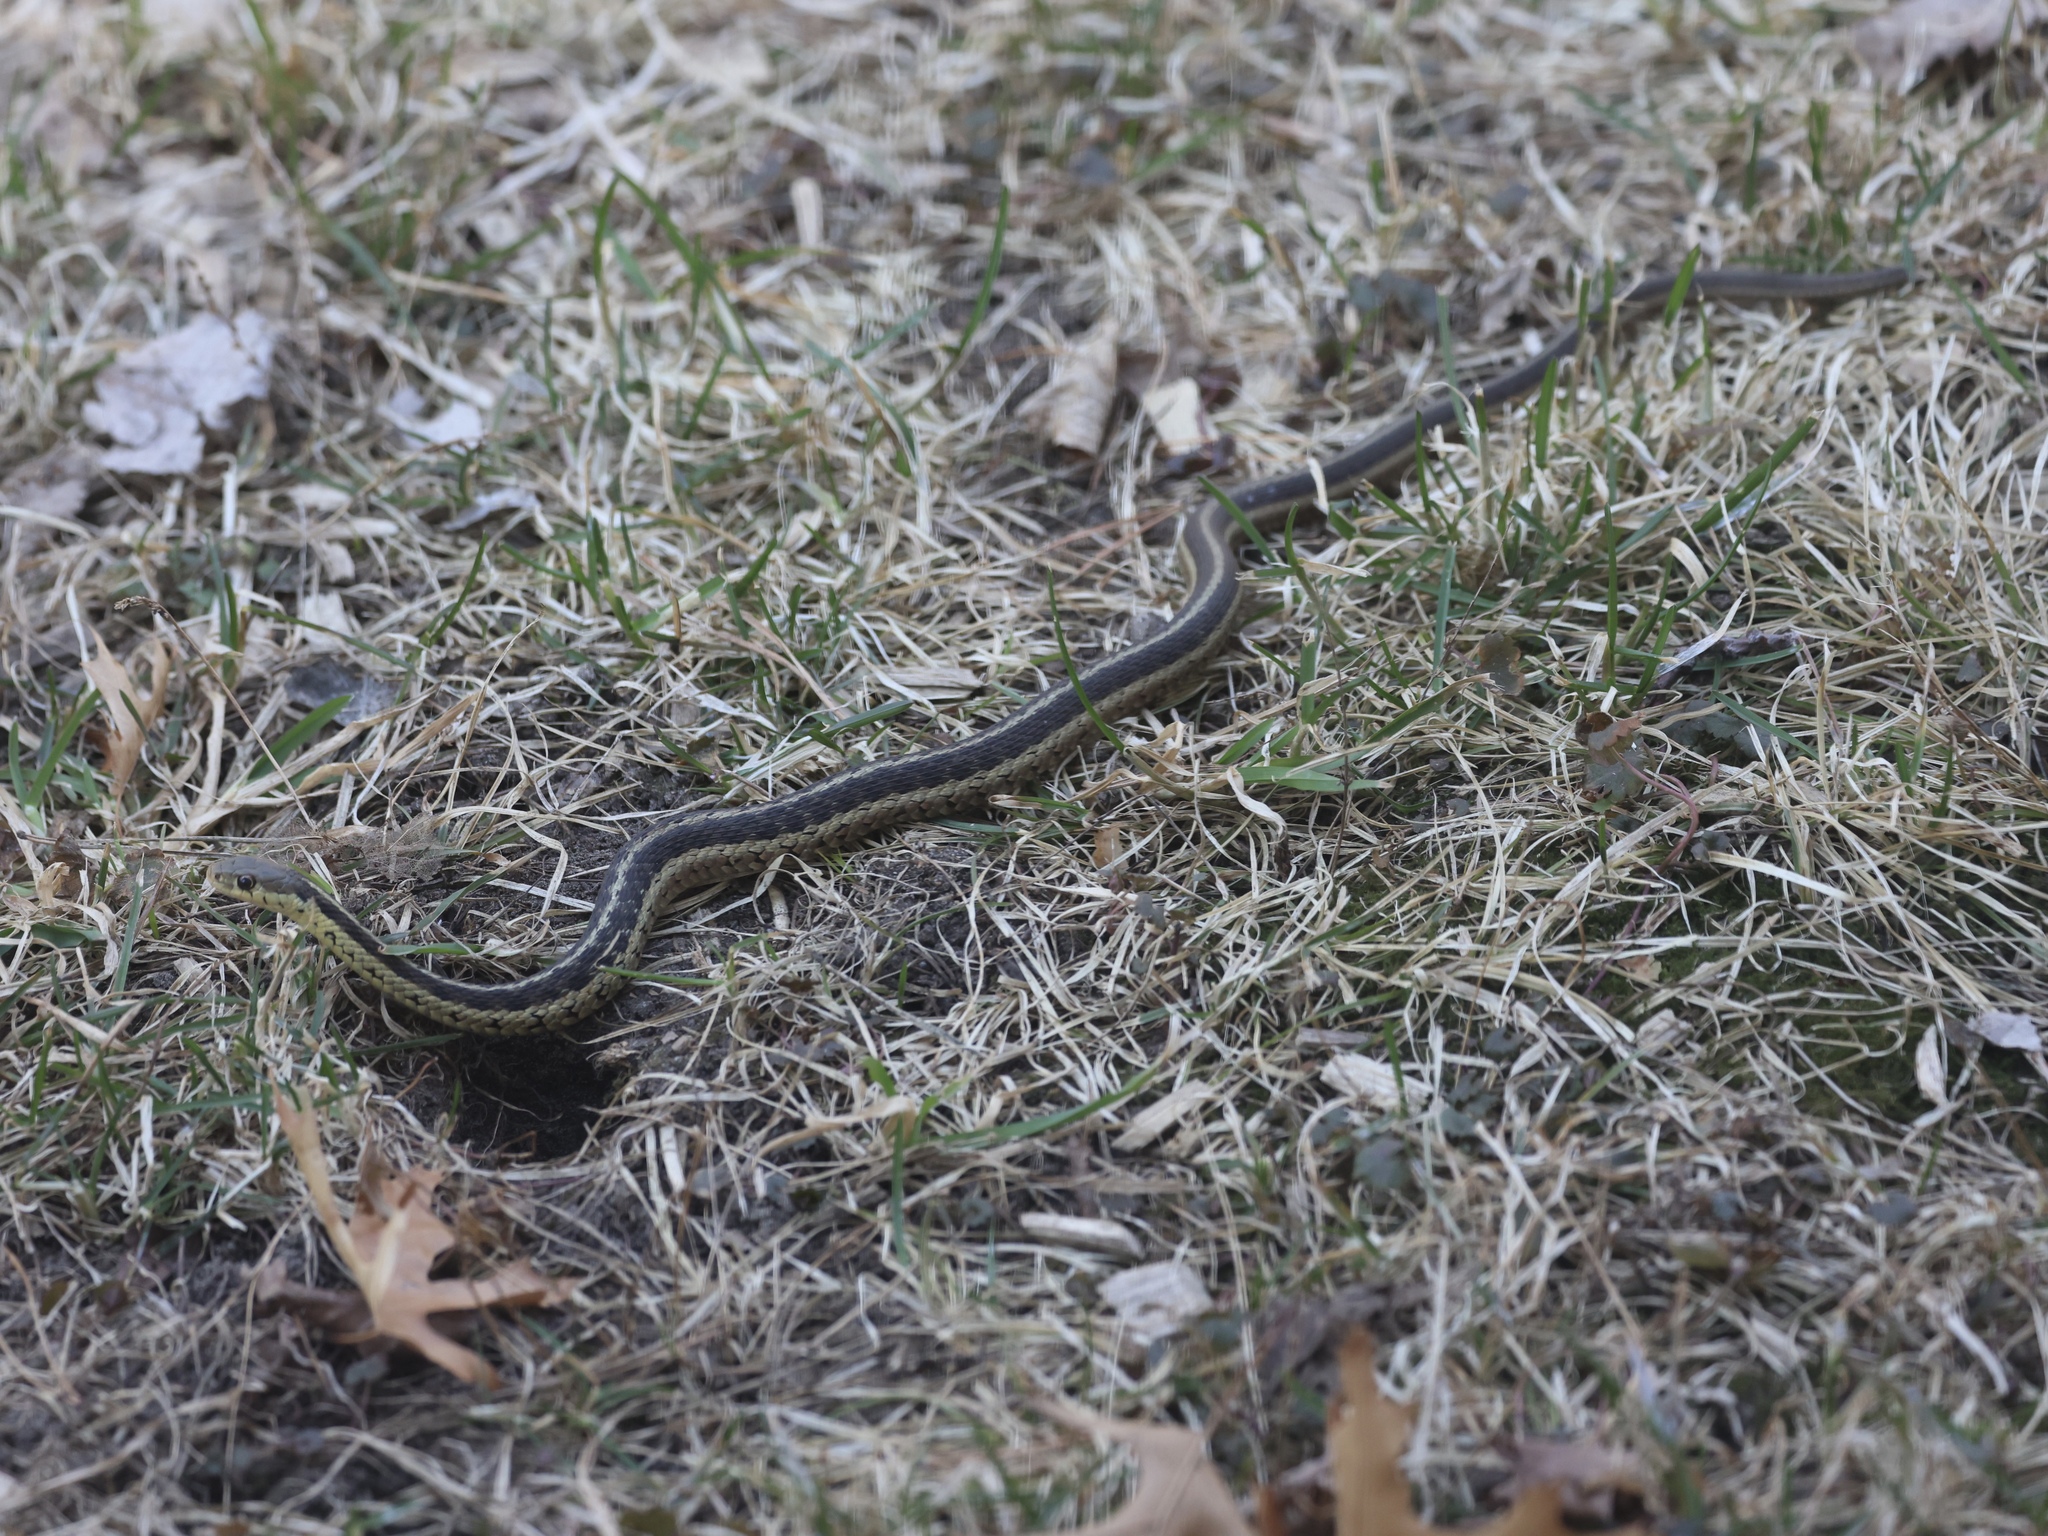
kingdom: Animalia
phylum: Chordata
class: Squamata
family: Colubridae
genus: Thamnophis
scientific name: Thamnophis sirtalis
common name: Common garter snake
